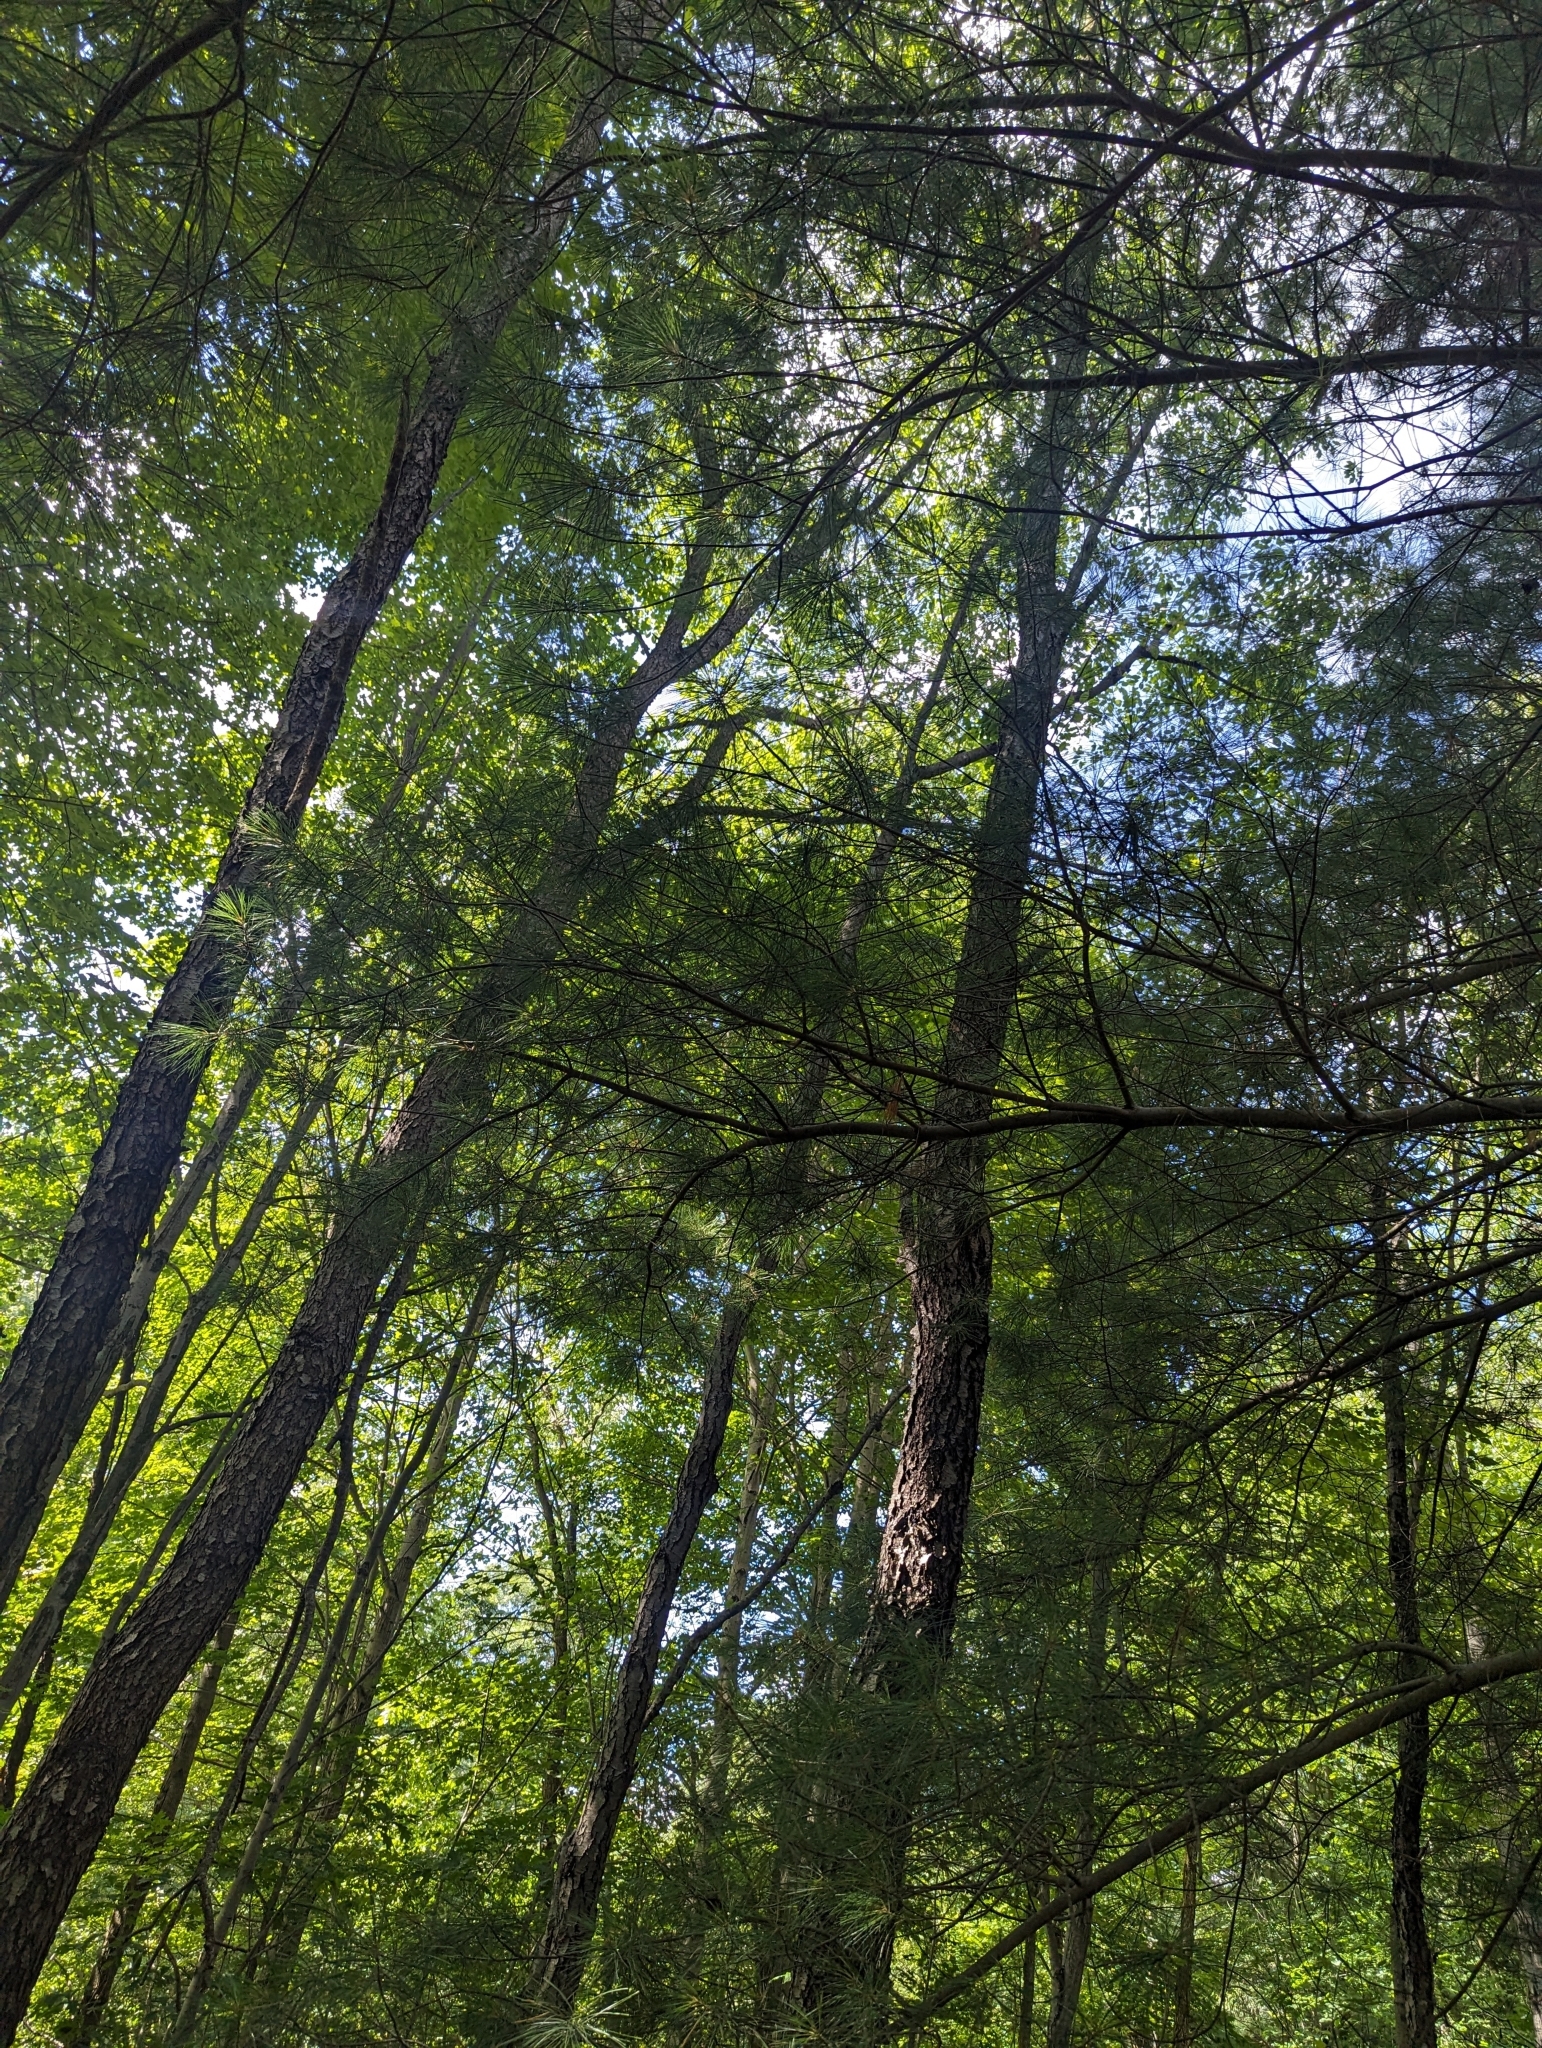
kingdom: Plantae
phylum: Tracheophyta
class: Pinopsida
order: Pinales
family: Pinaceae
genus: Pinus
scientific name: Pinus strobus
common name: Weymouth pine
